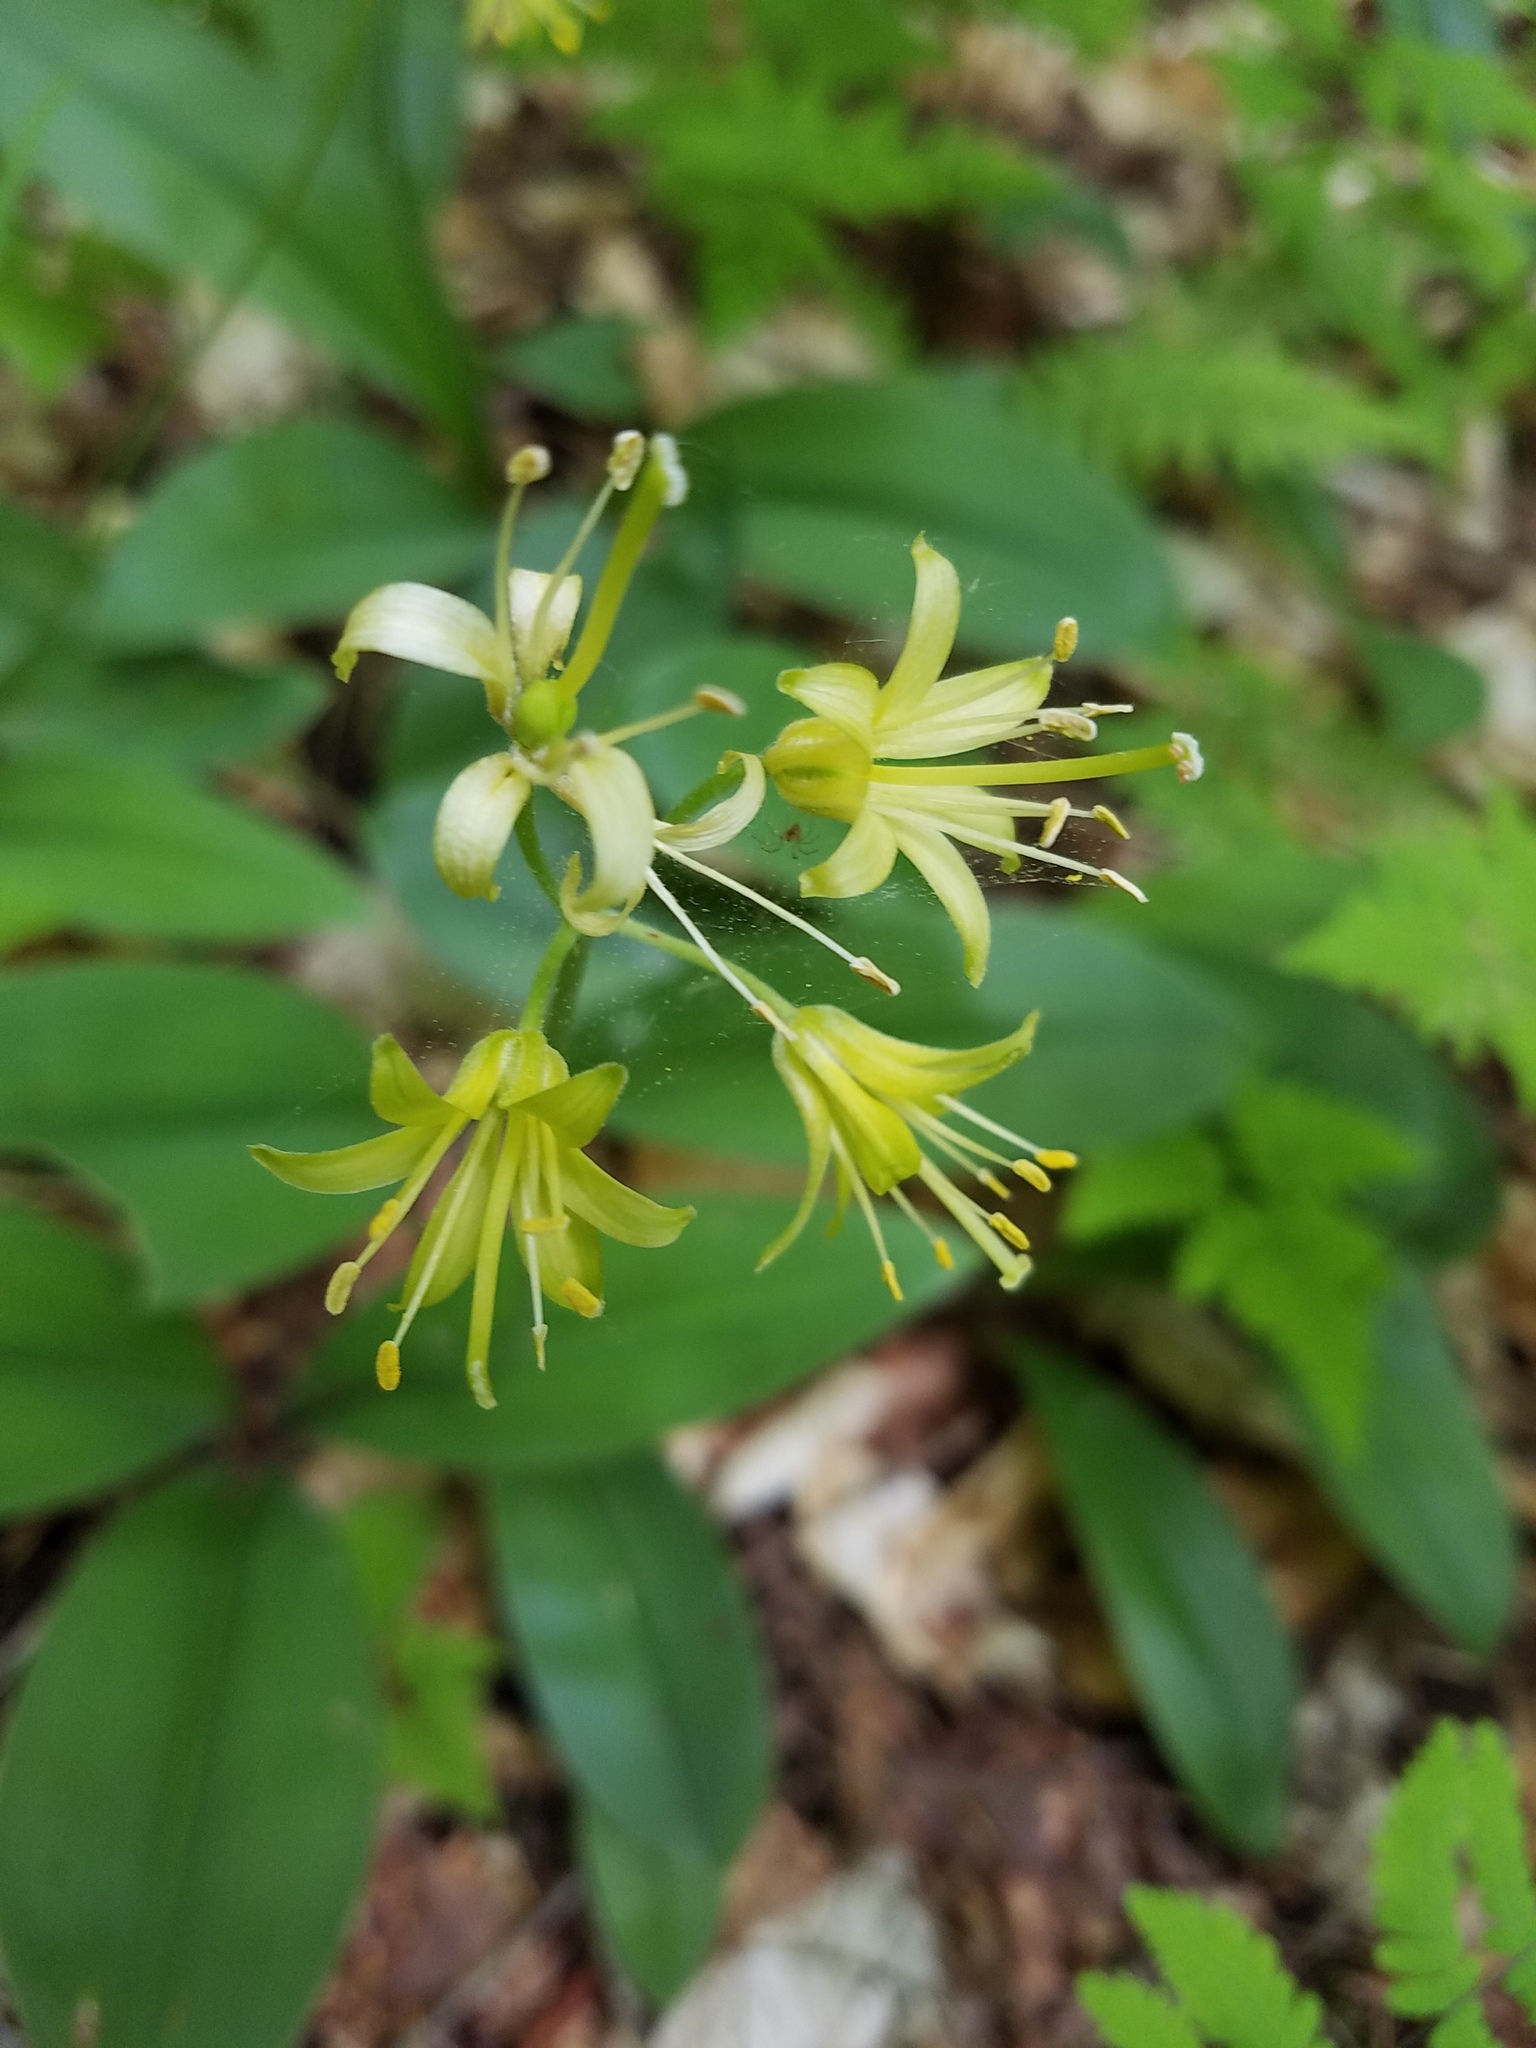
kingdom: Plantae
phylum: Tracheophyta
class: Liliopsida
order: Liliales
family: Liliaceae
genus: Clintonia
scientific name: Clintonia borealis
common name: Yellow clintonia
